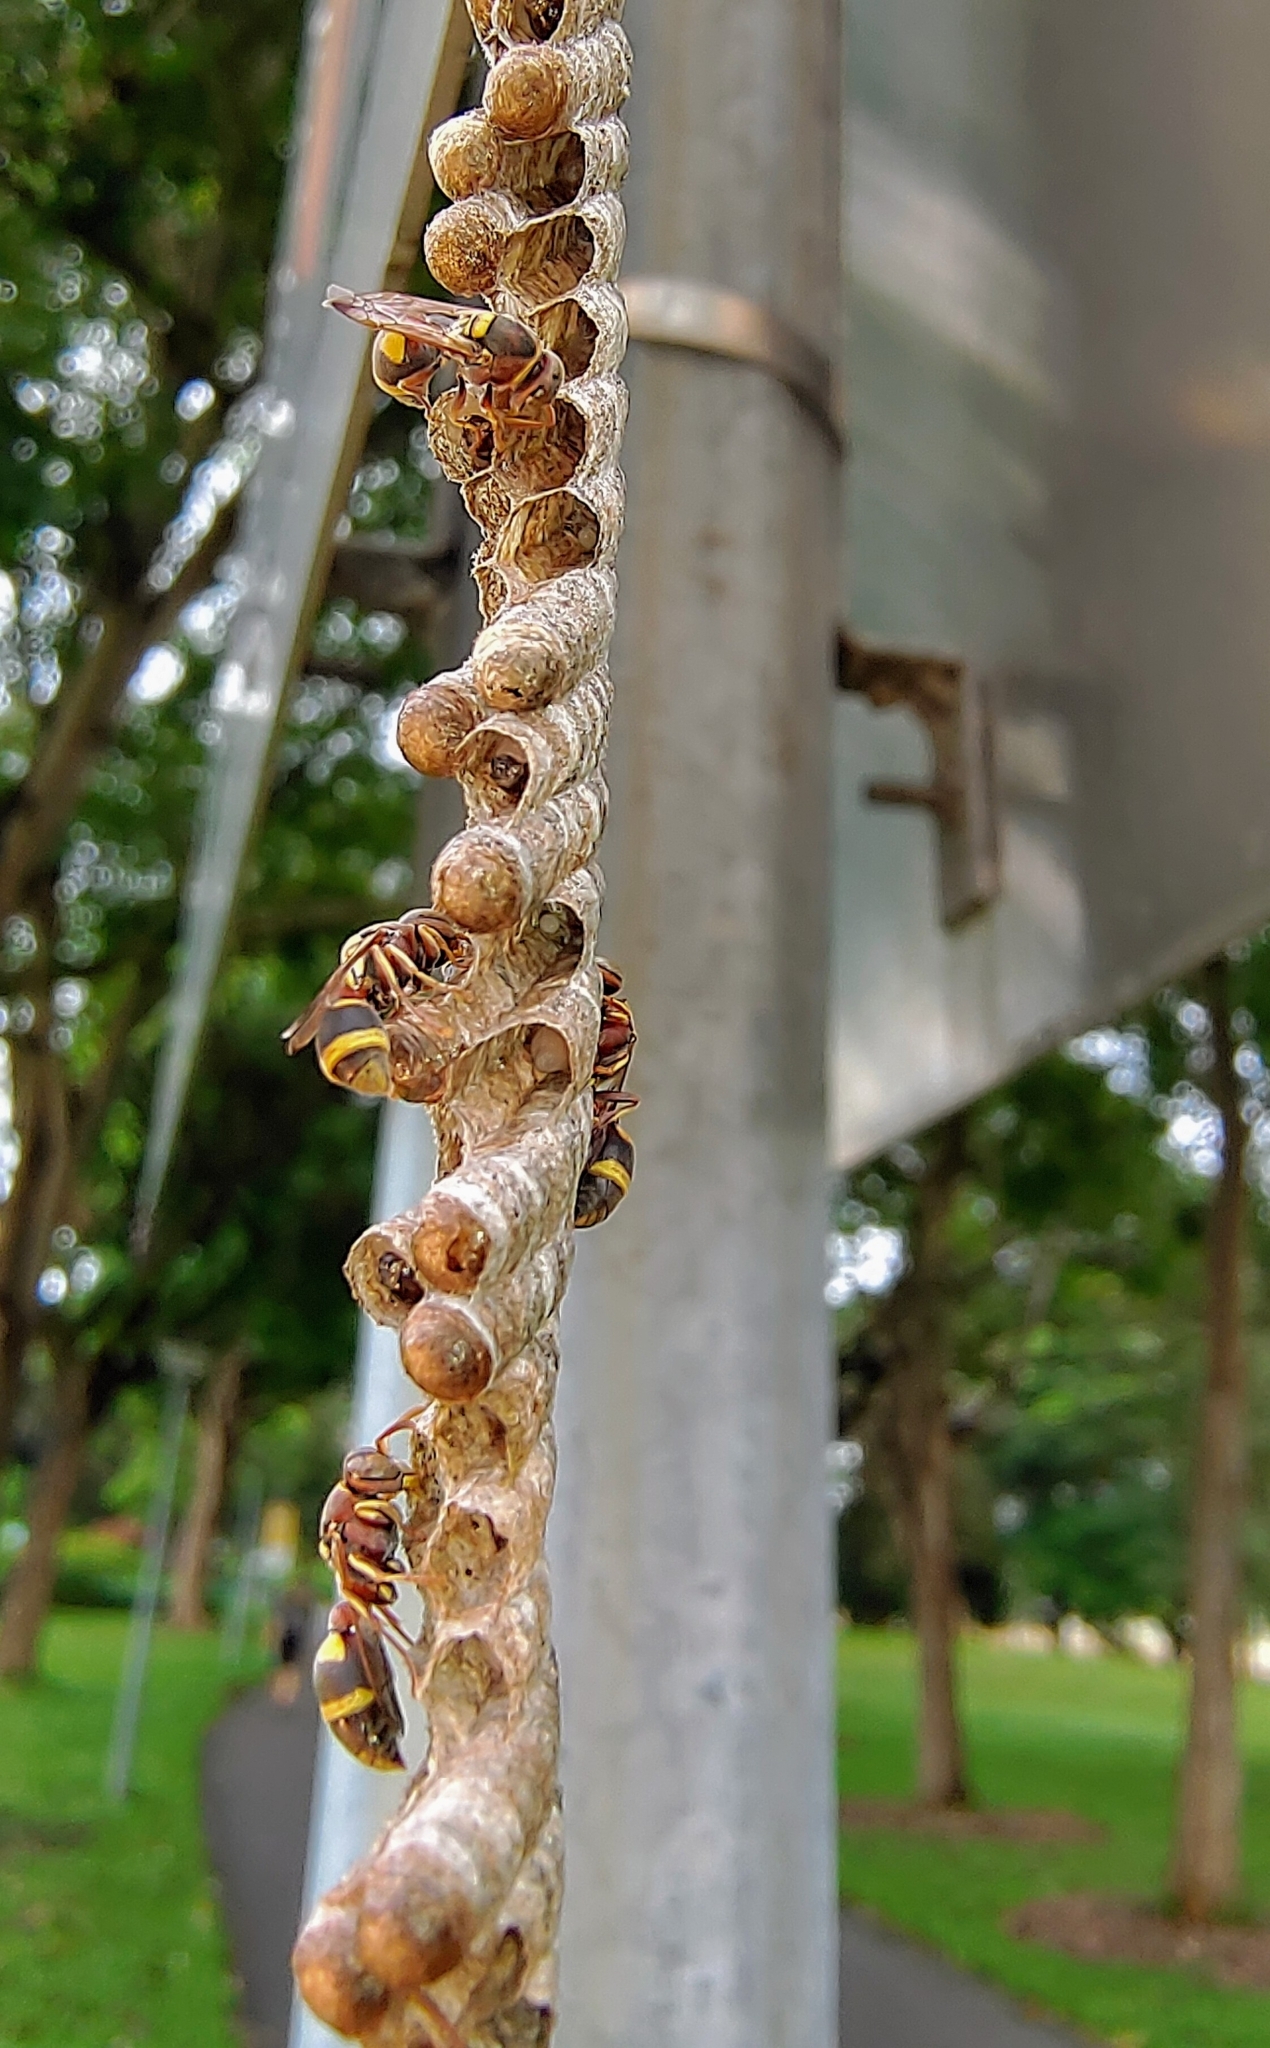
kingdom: Animalia
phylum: Arthropoda
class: Insecta
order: Hymenoptera
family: Vespidae
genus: Ropalidia
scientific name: Ropalidia jacobsoni
